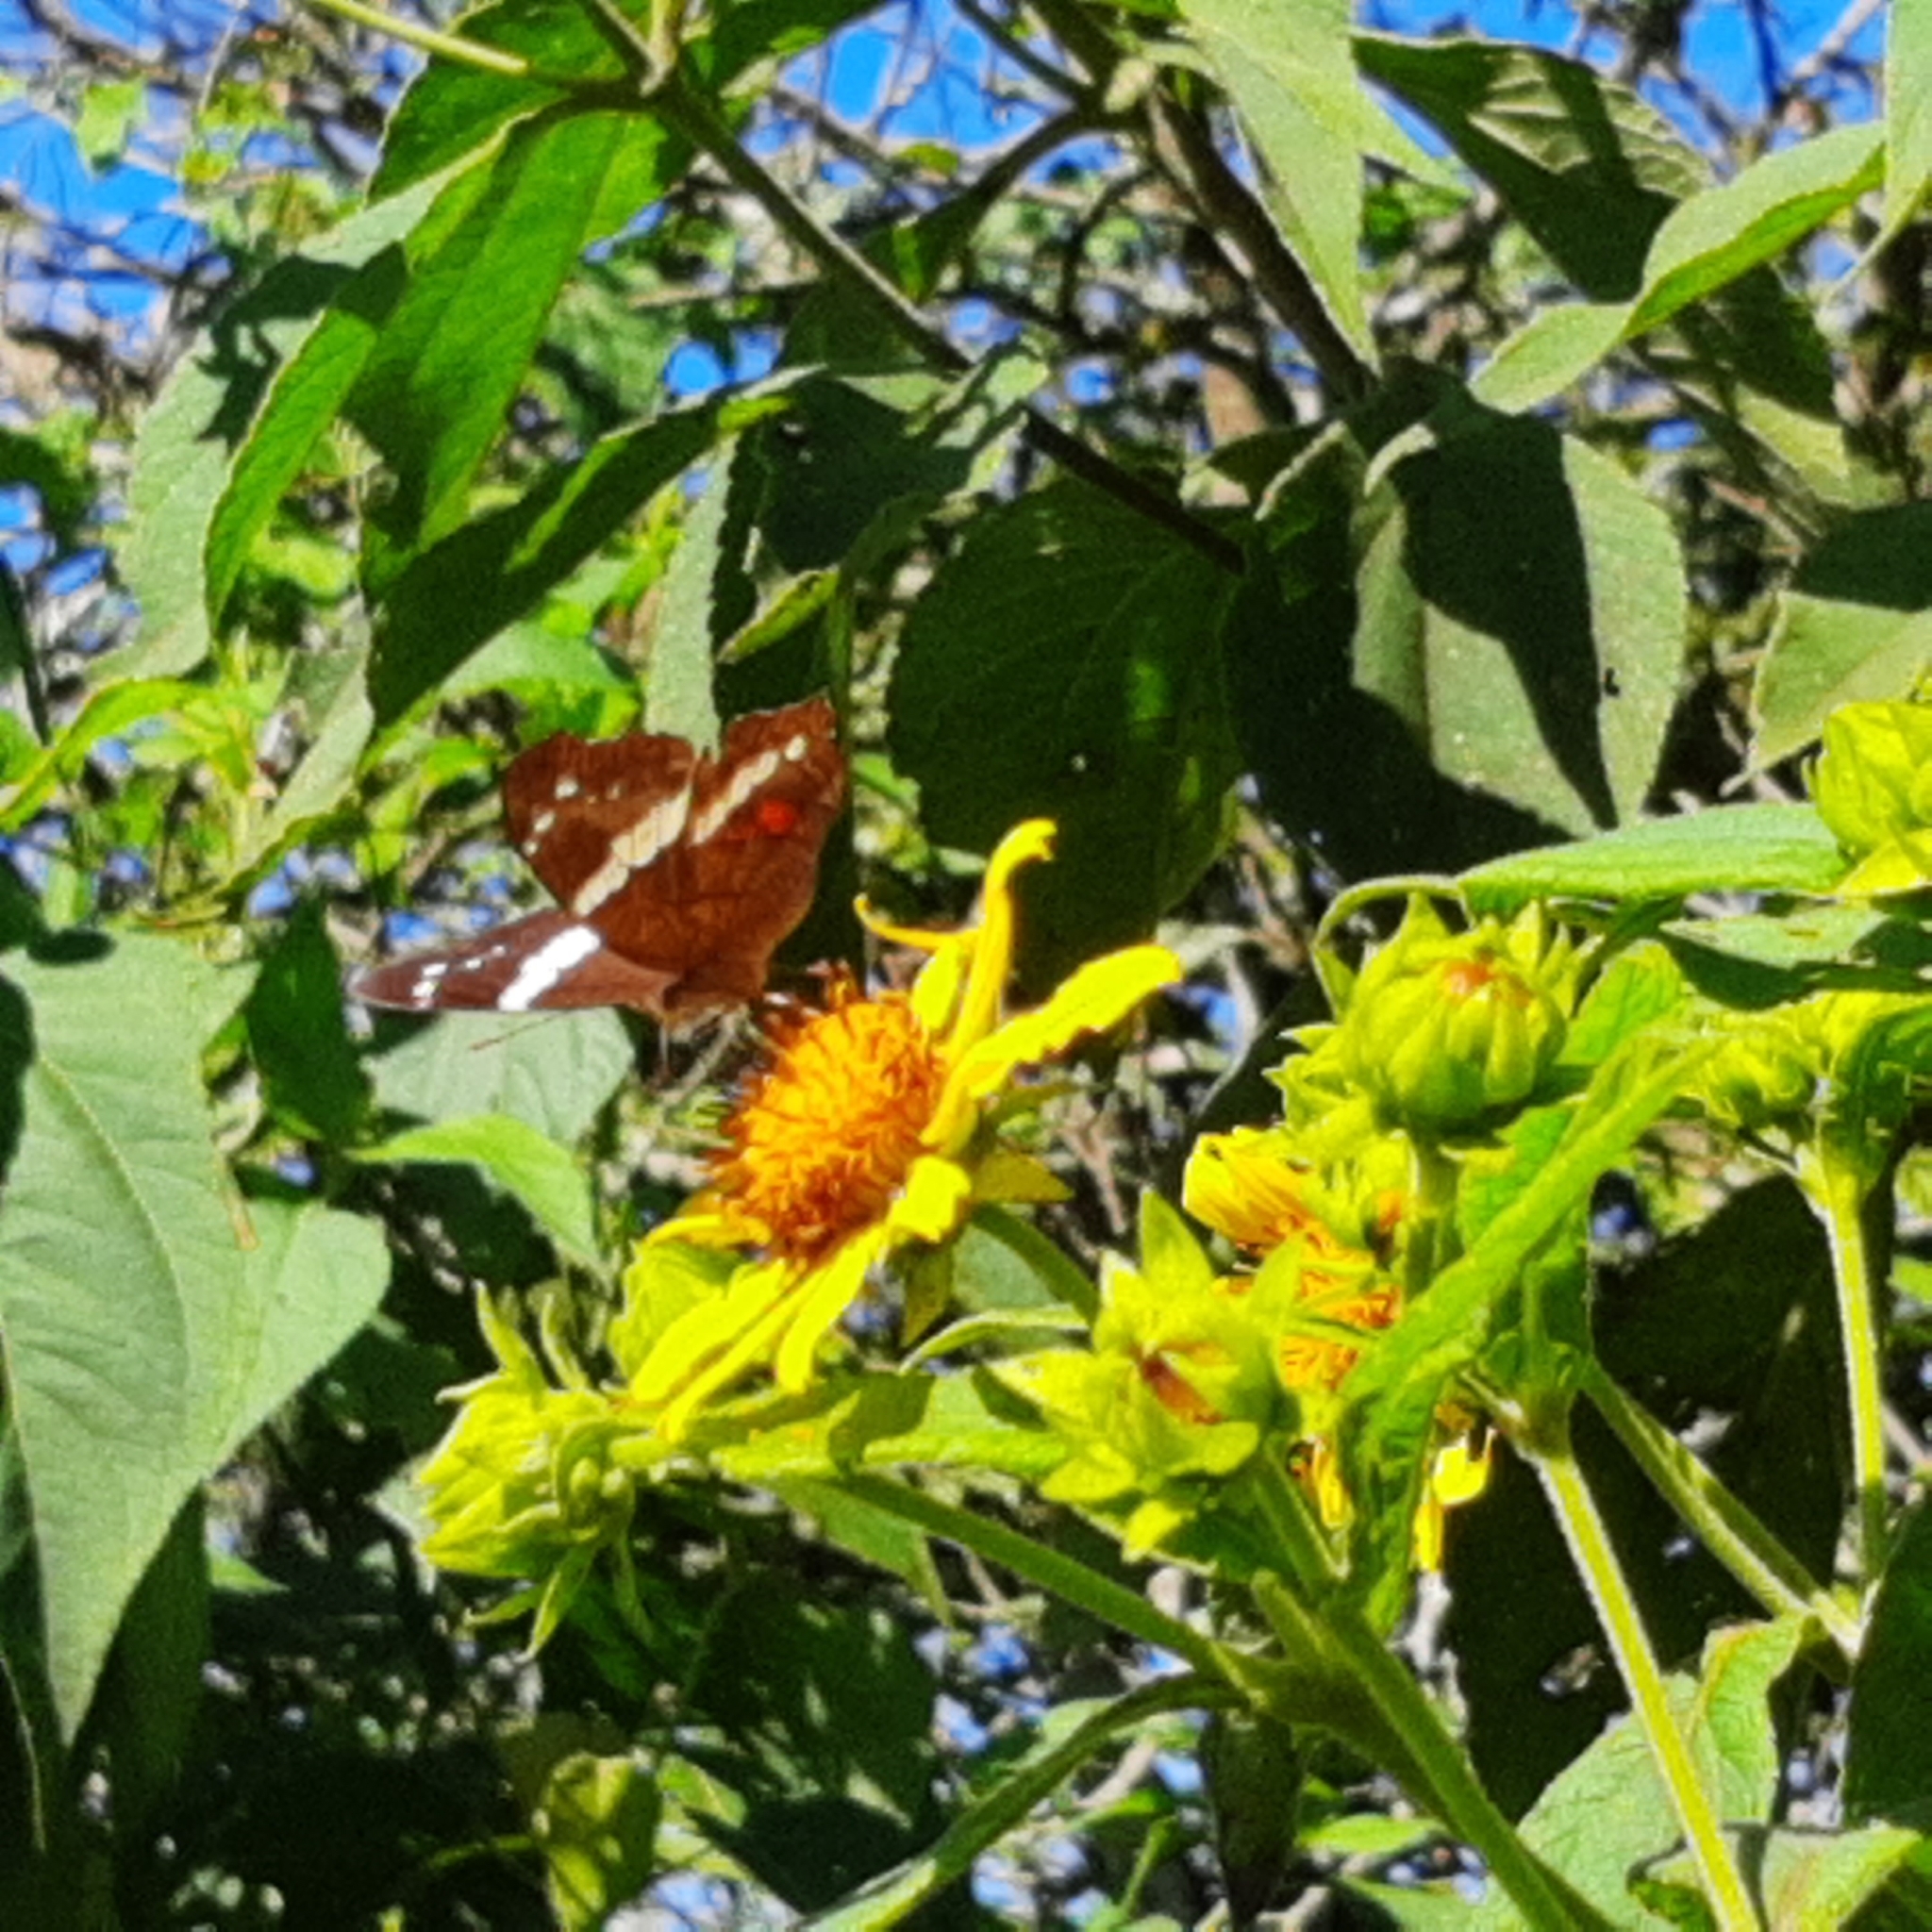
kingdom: Animalia
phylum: Arthropoda
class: Insecta
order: Lepidoptera
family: Nymphalidae
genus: Anartia
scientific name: Anartia fatima
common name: Banded peacock
